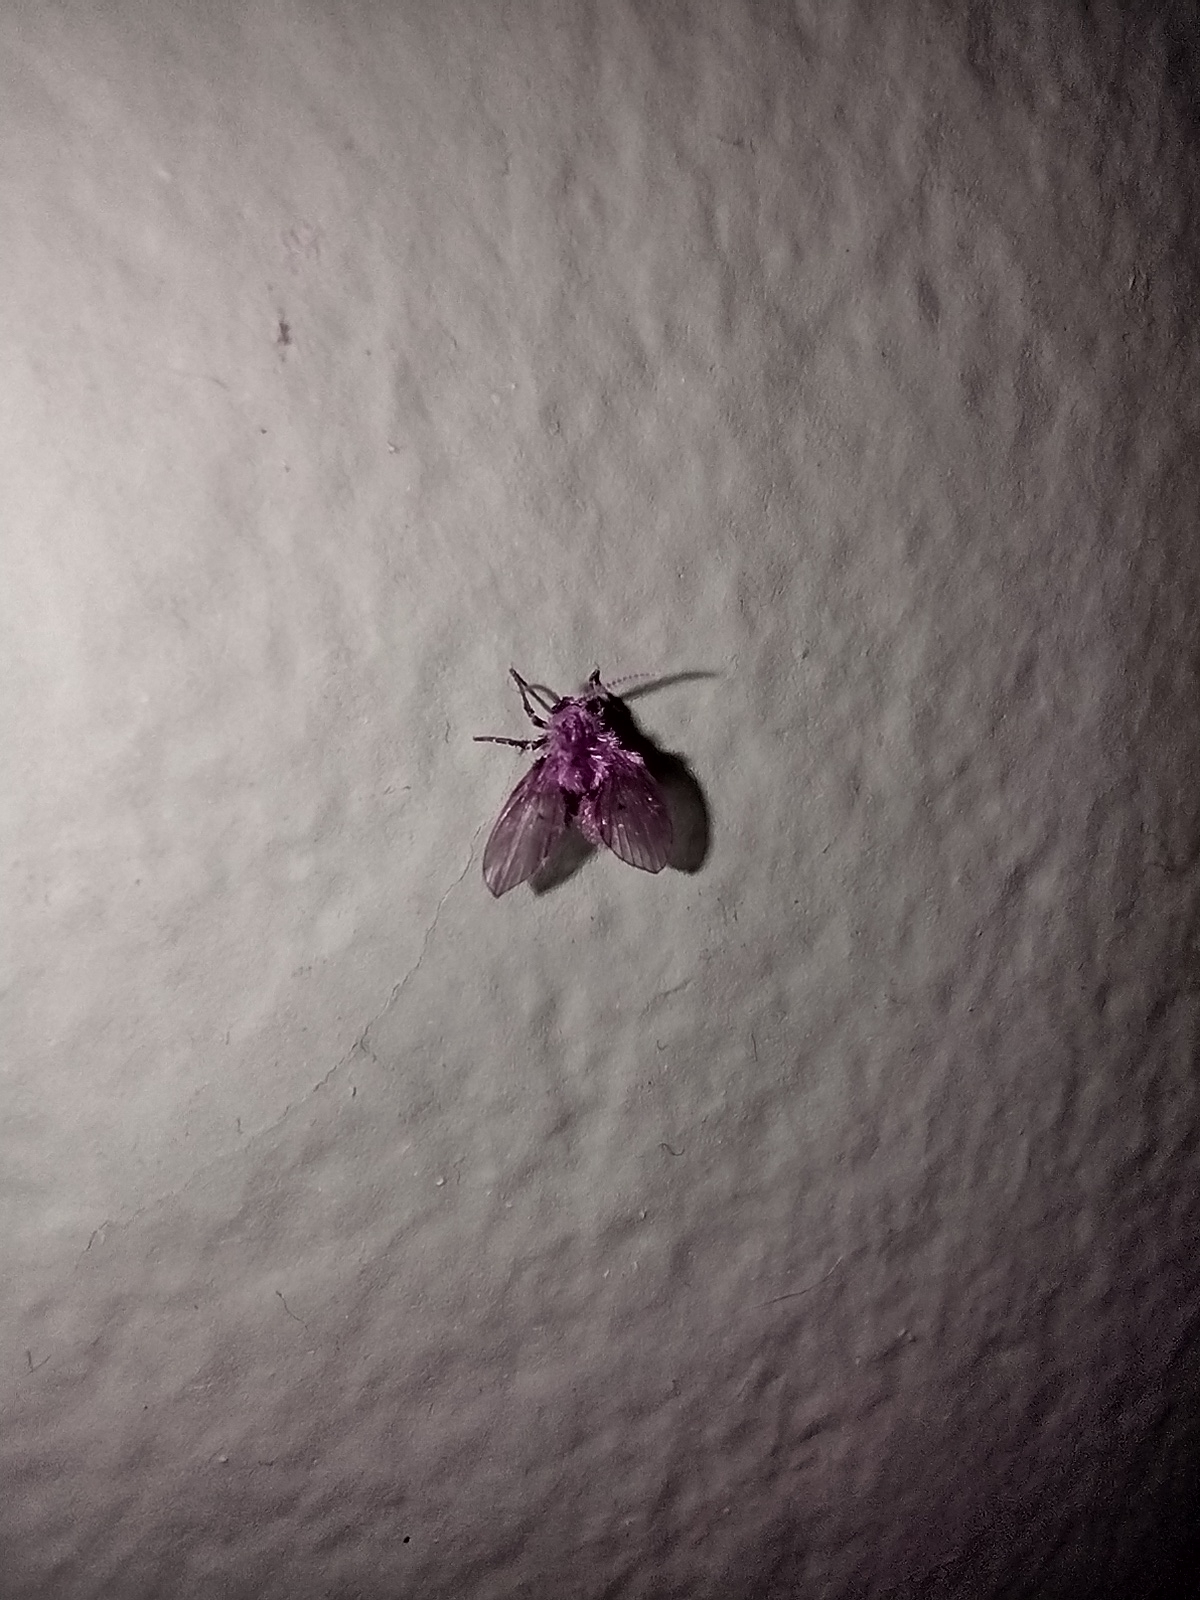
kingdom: Animalia
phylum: Arthropoda
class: Insecta
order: Diptera
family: Psychodidae
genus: Clogmia
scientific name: Clogmia albipunctatus
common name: White-spotted moth fly
